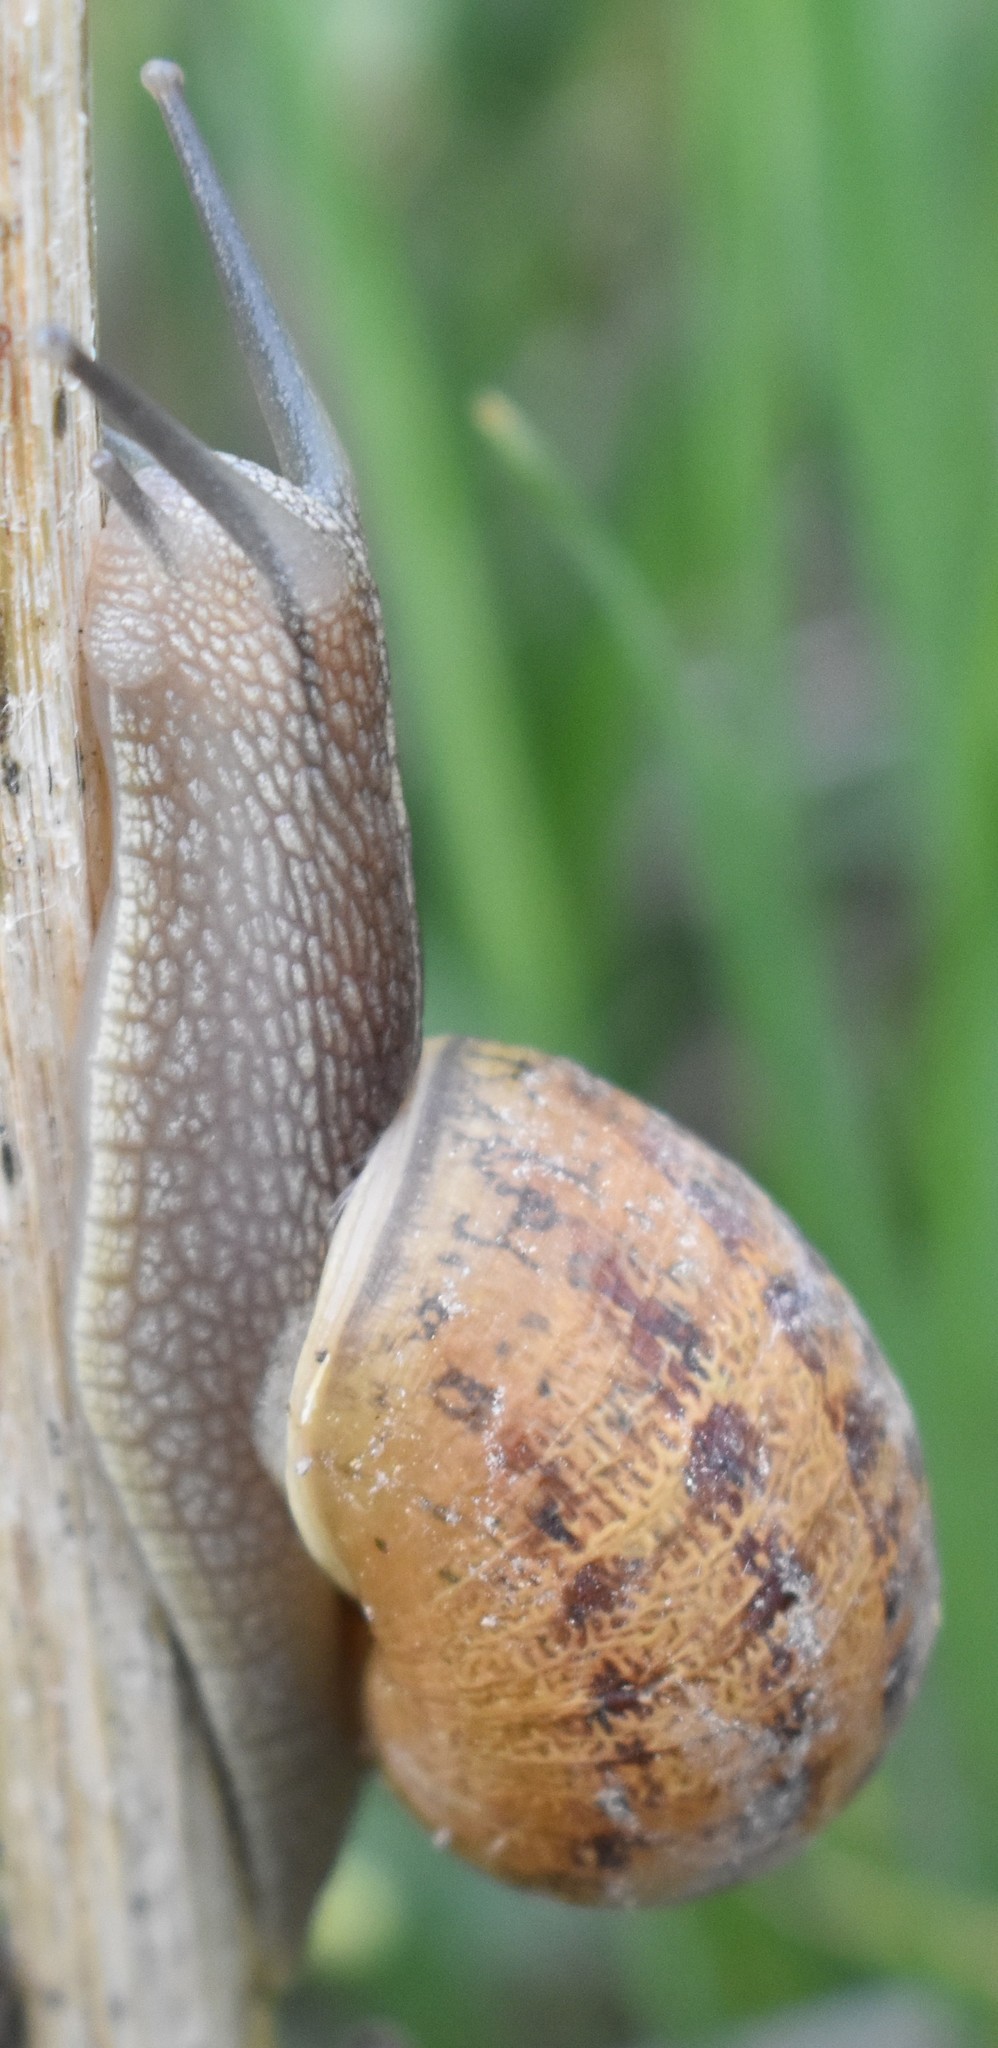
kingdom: Animalia
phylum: Mollusca
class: Gastropoda
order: Stylommatophora
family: Helicidae
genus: Cornu
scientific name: Cornu aspersum
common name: Brown garden snail
